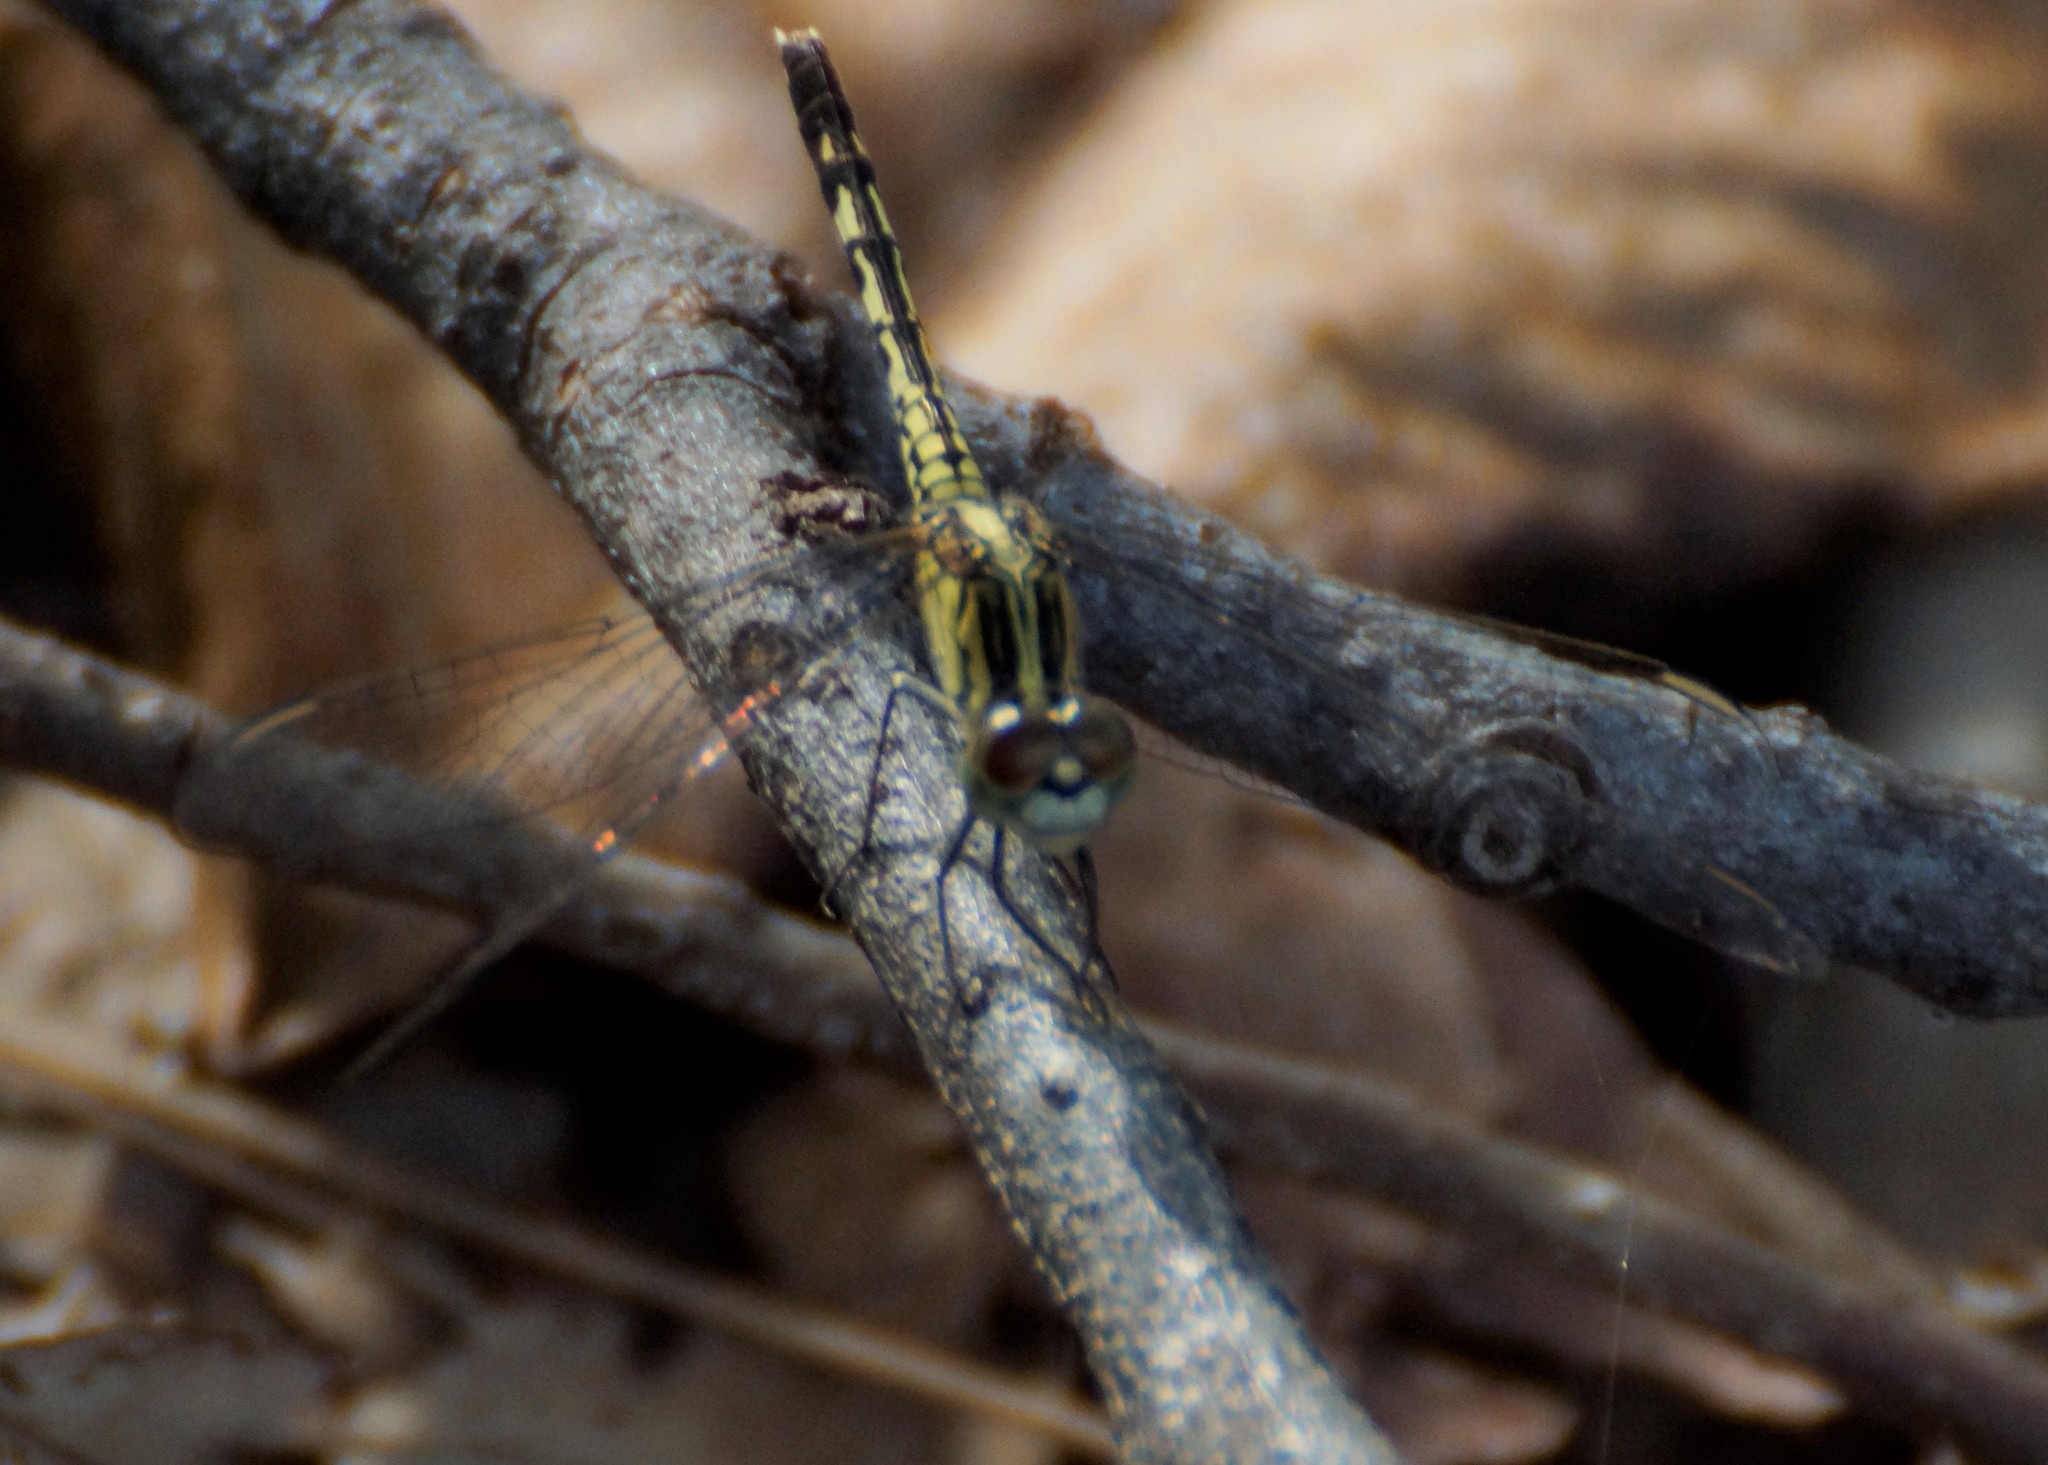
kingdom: Animalia
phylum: Arthropoda
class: Insecta
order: Odonata
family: Libellulidae
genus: Diplacodes
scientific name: Diplacodes trivialis
